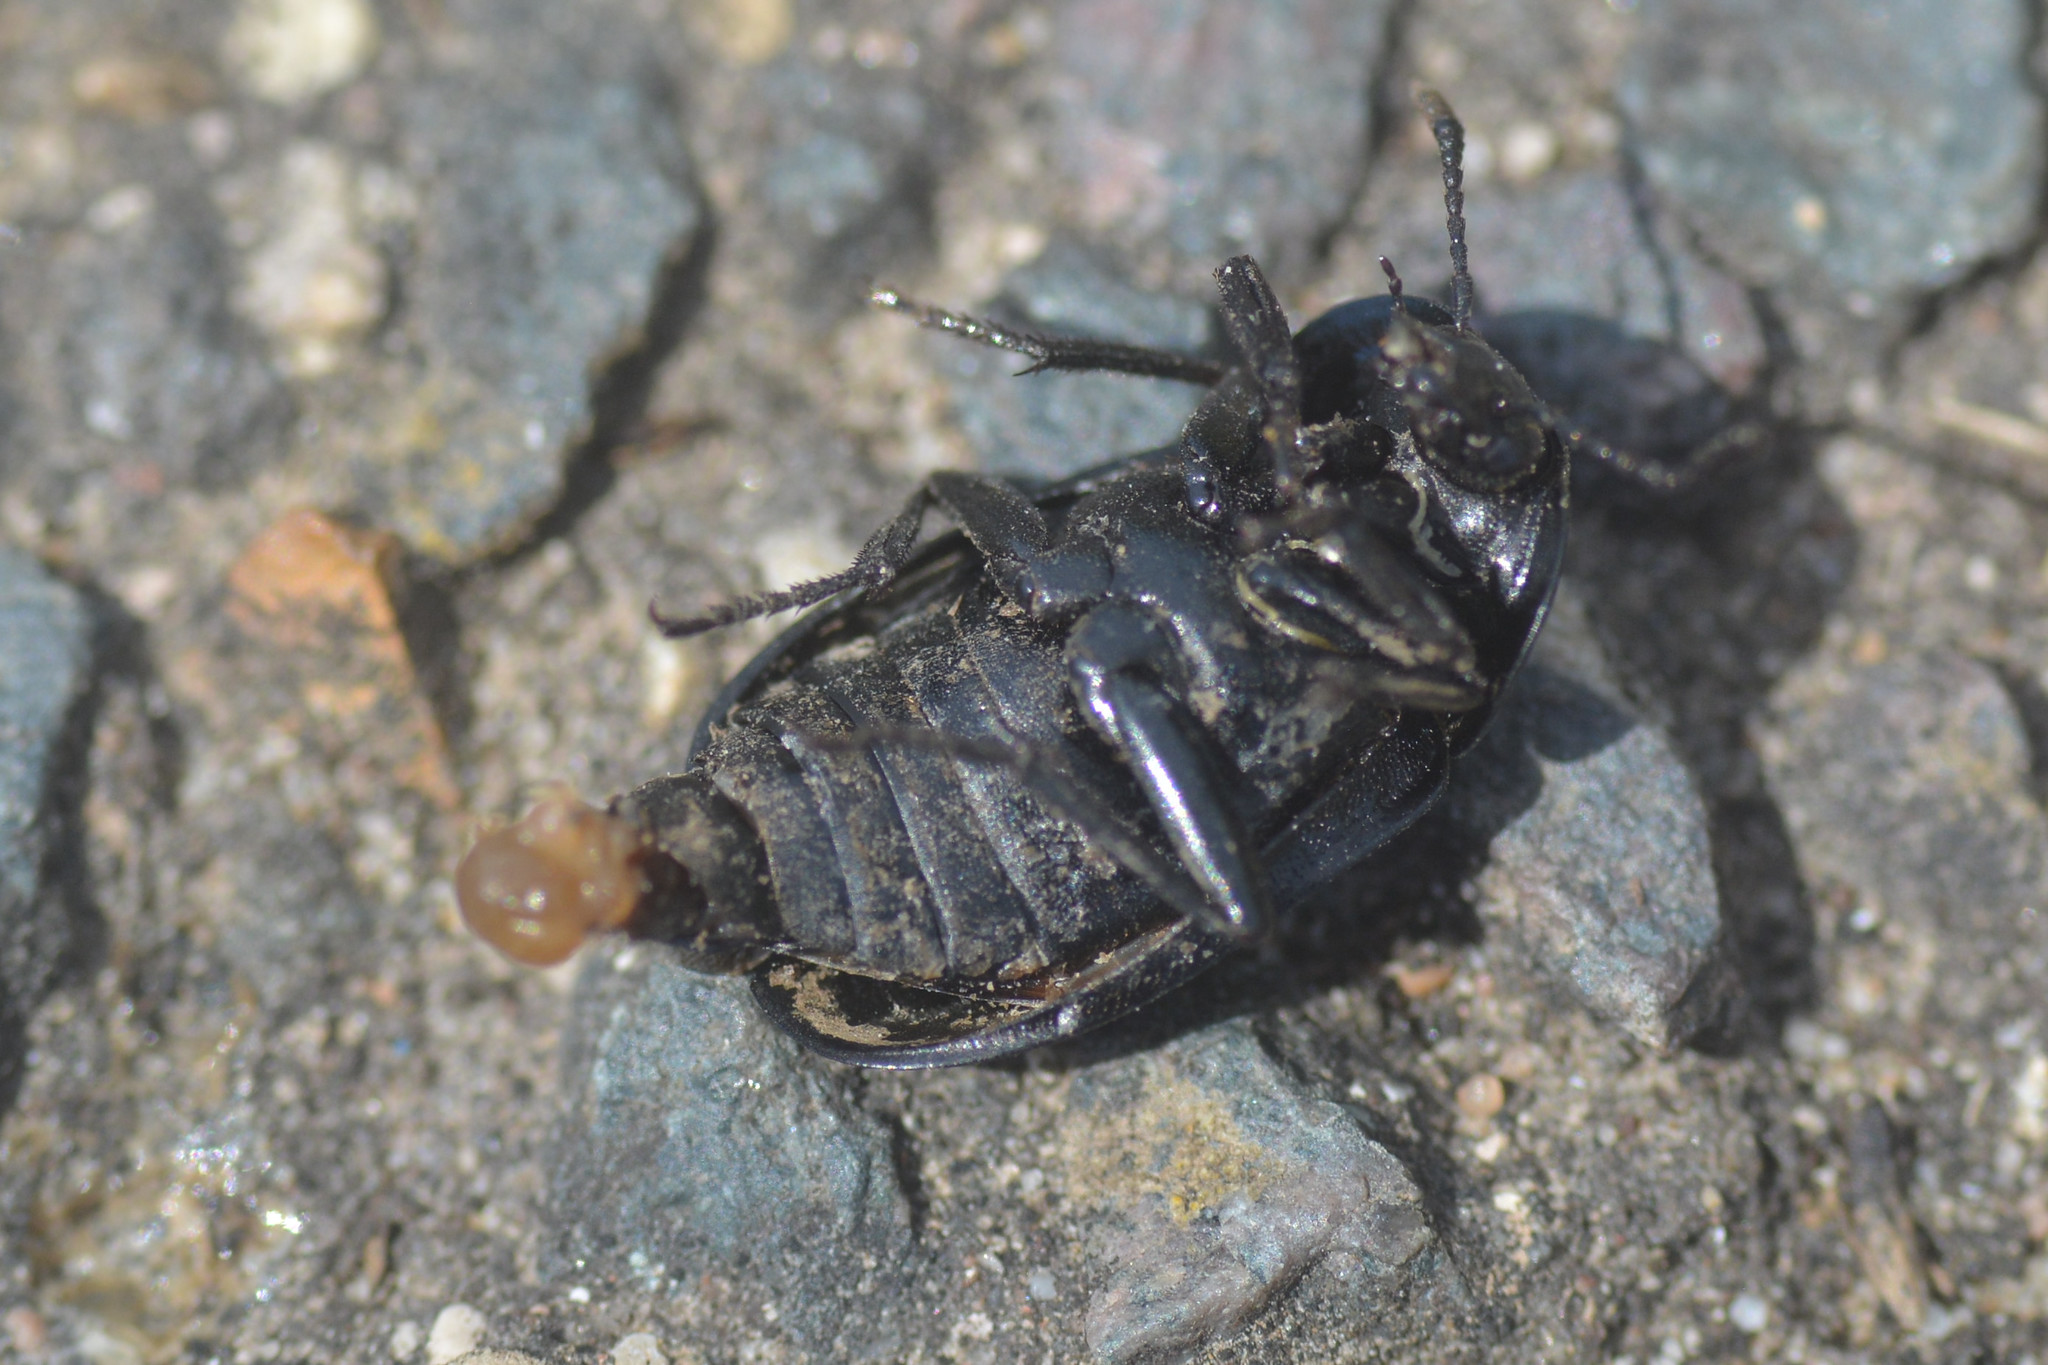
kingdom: Animalia
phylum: Arthropoda
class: Insecta
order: Coleoptera
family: Staphylinidae
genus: Silpha
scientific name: Silpha tristis
